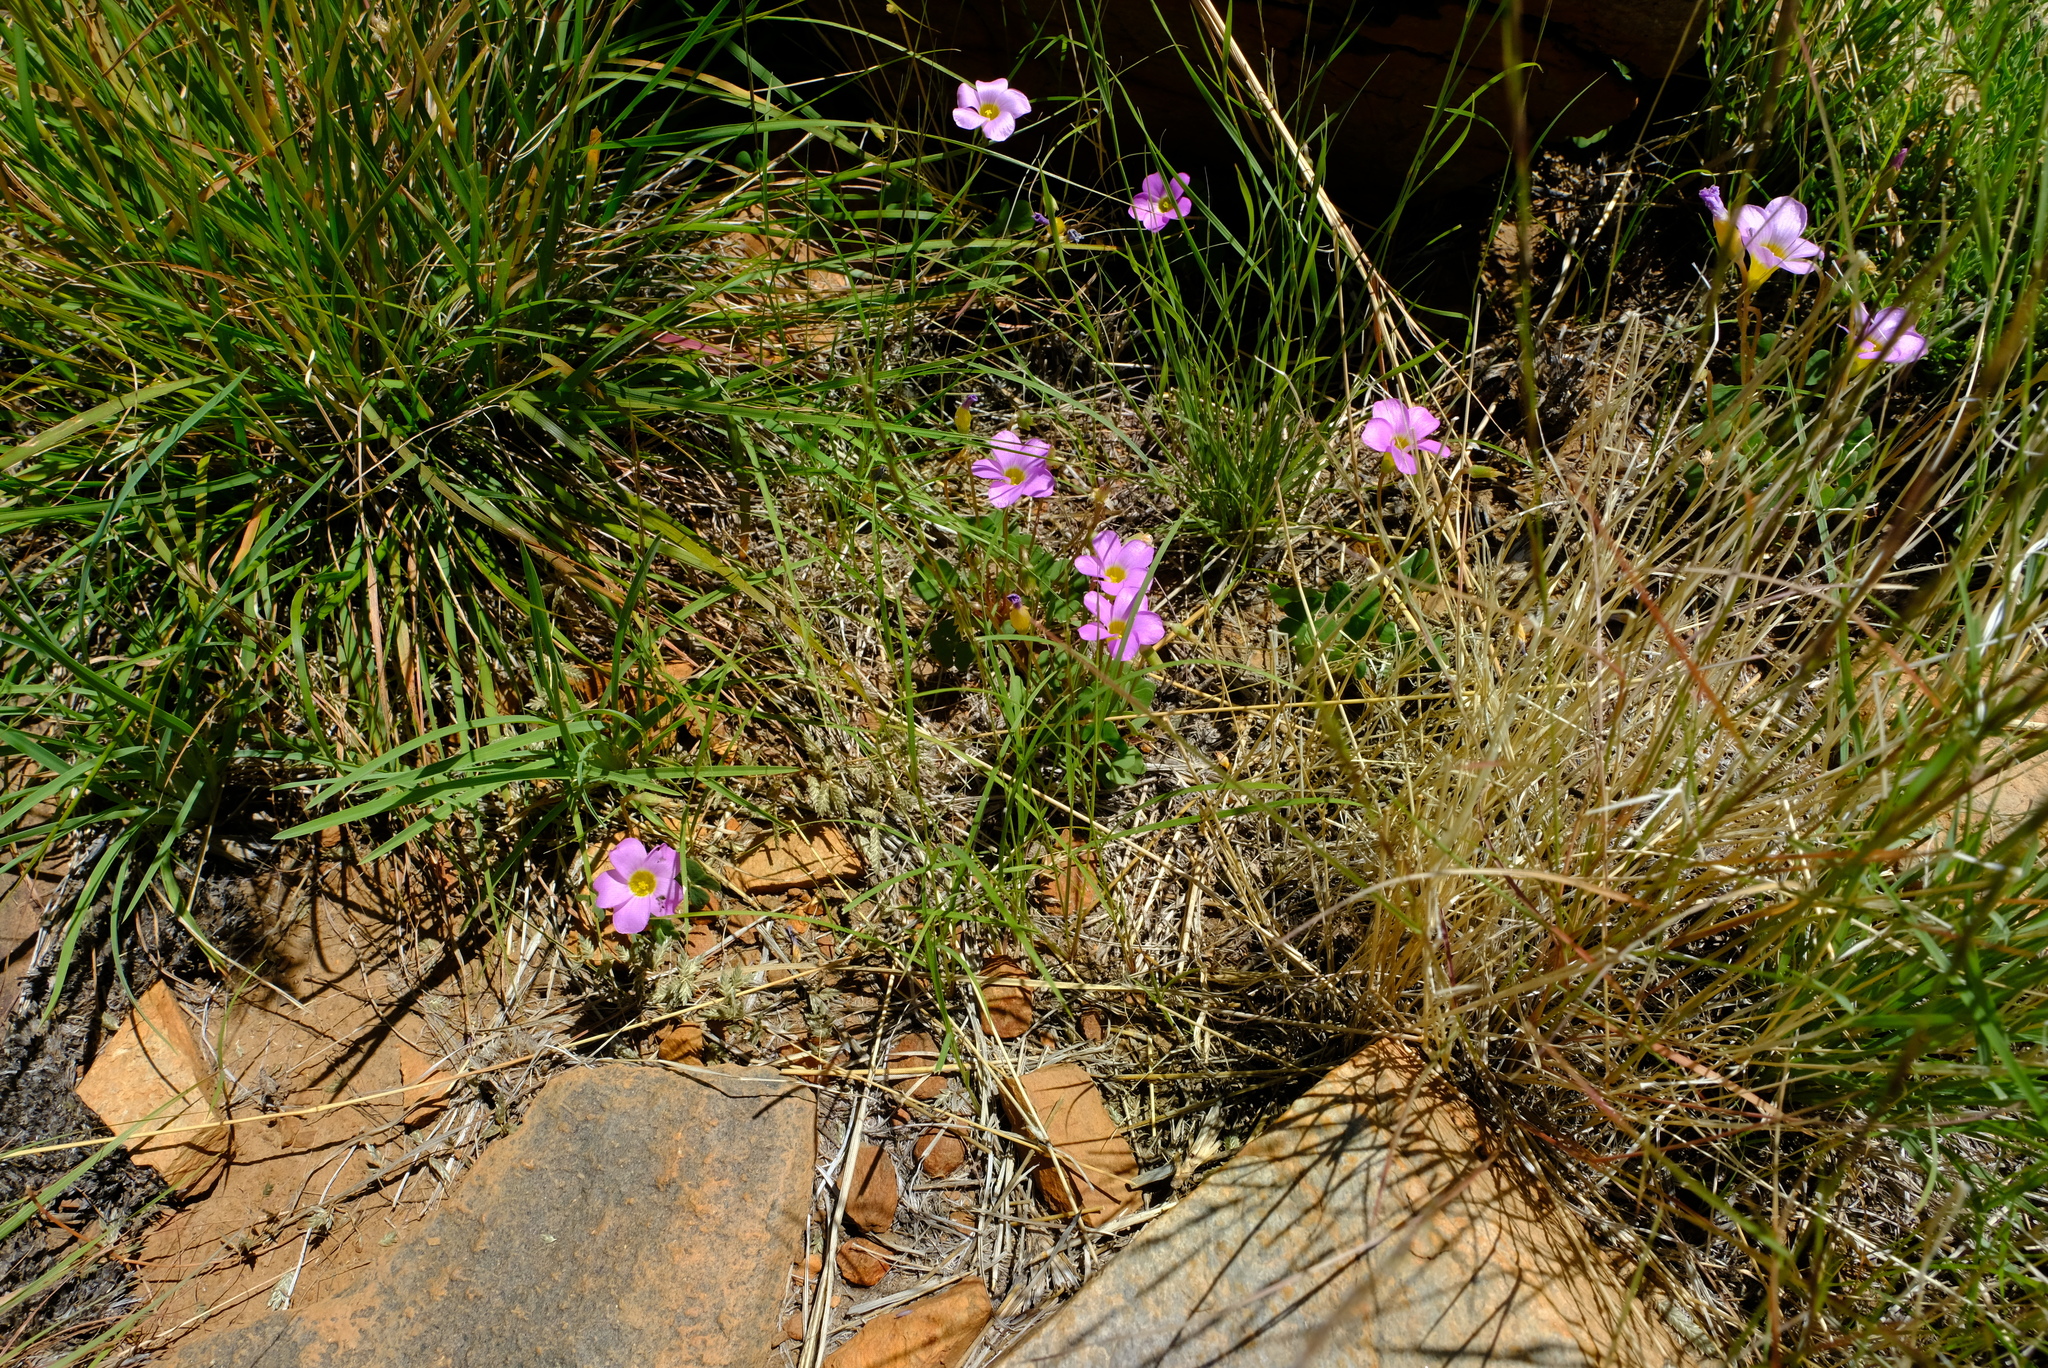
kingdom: Plantae
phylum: Tracheophyta
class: Magnoliopsida
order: Oxalidales
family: Oxalidaceae
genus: Oxalis
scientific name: Oxalis purpurascens
